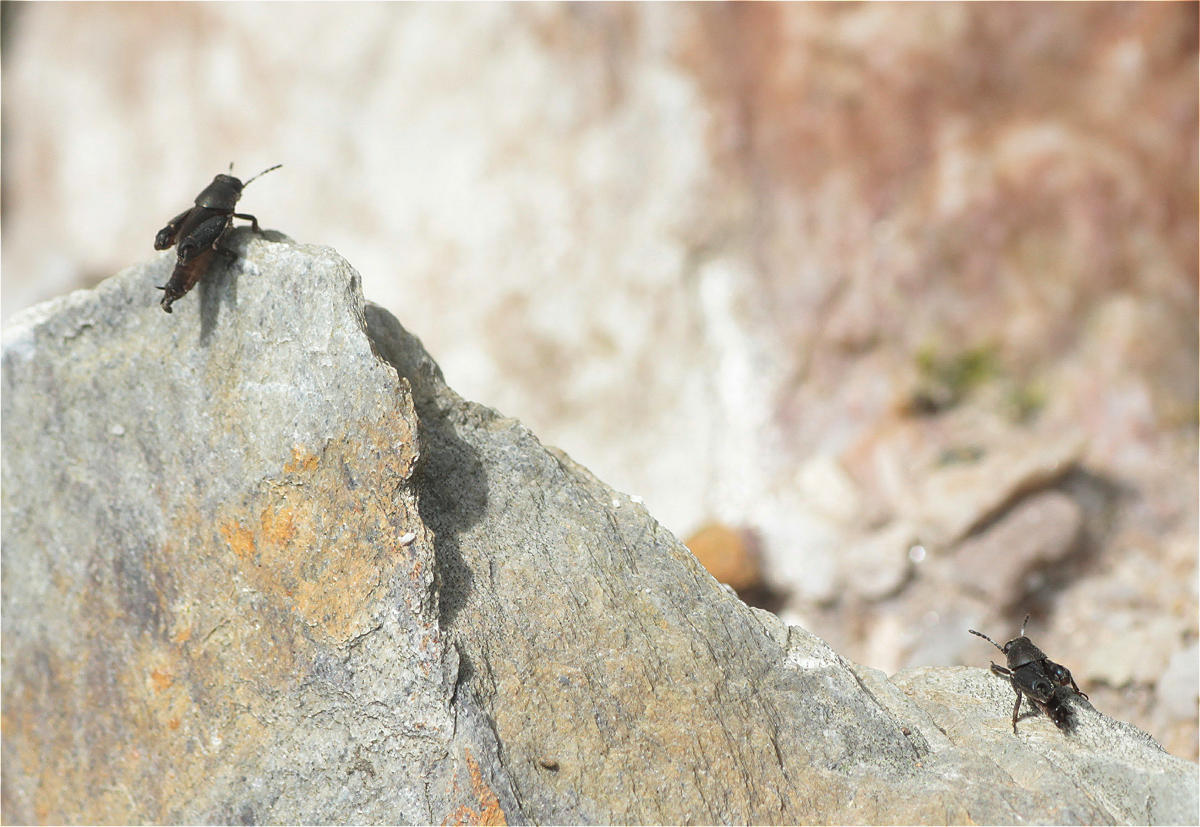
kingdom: Animalia
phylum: Arthropoda
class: Insecta
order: Orthoptera
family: Ripipterygidae
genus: Ripipteryx
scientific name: Ripipteryx forceps
